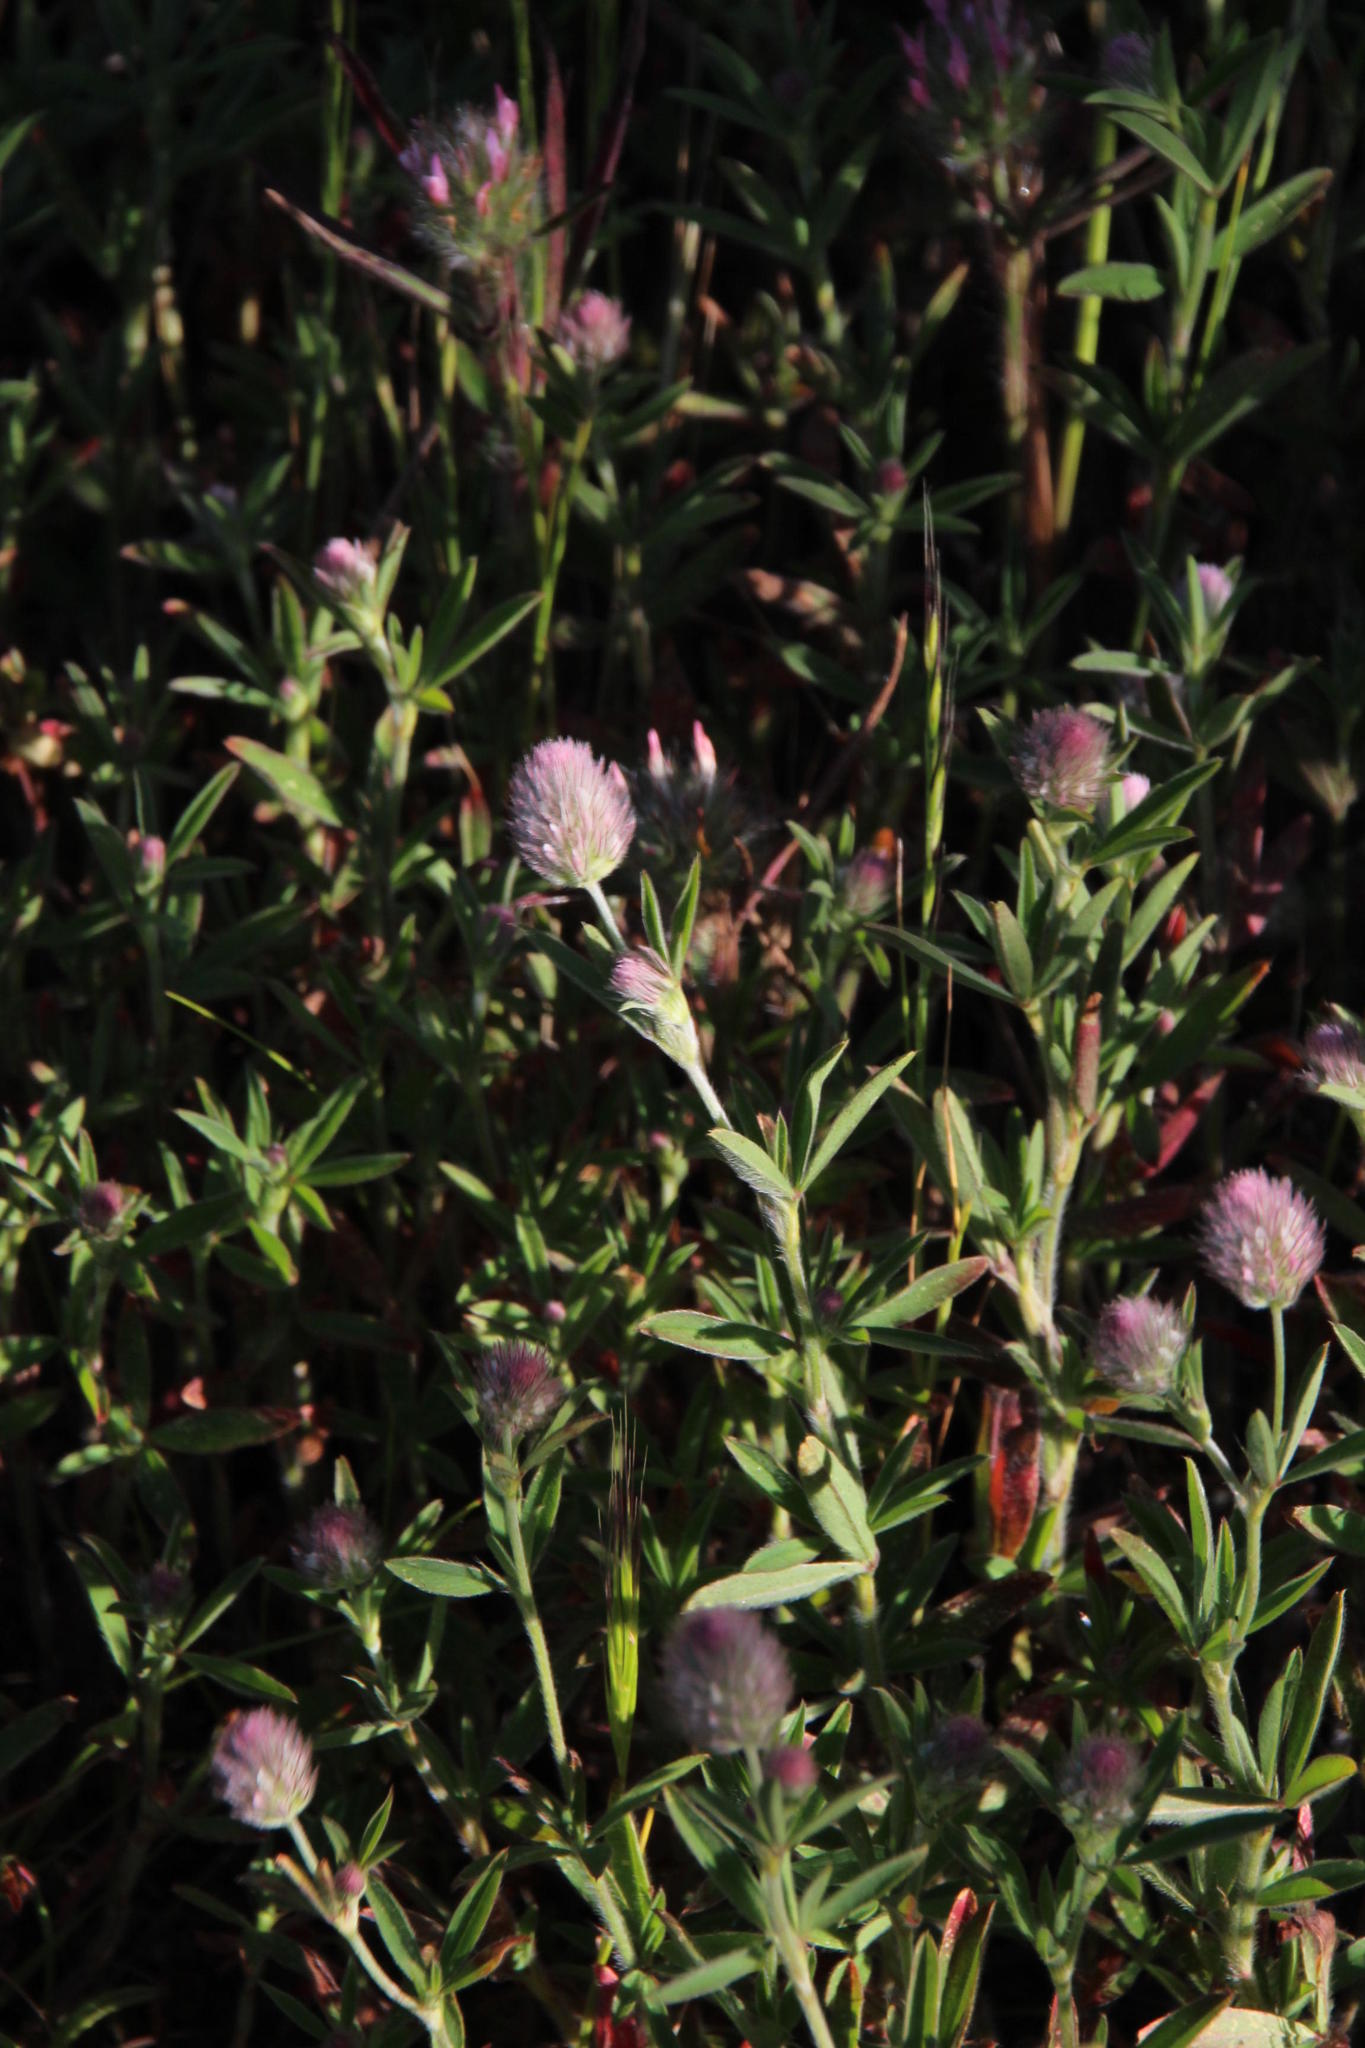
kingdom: Plantae
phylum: Tracheophyta
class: Magnoliopsida
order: Fabales
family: Fabaceae
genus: Trifolium
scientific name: Trifolium arvense
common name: Hare's-foot clover
